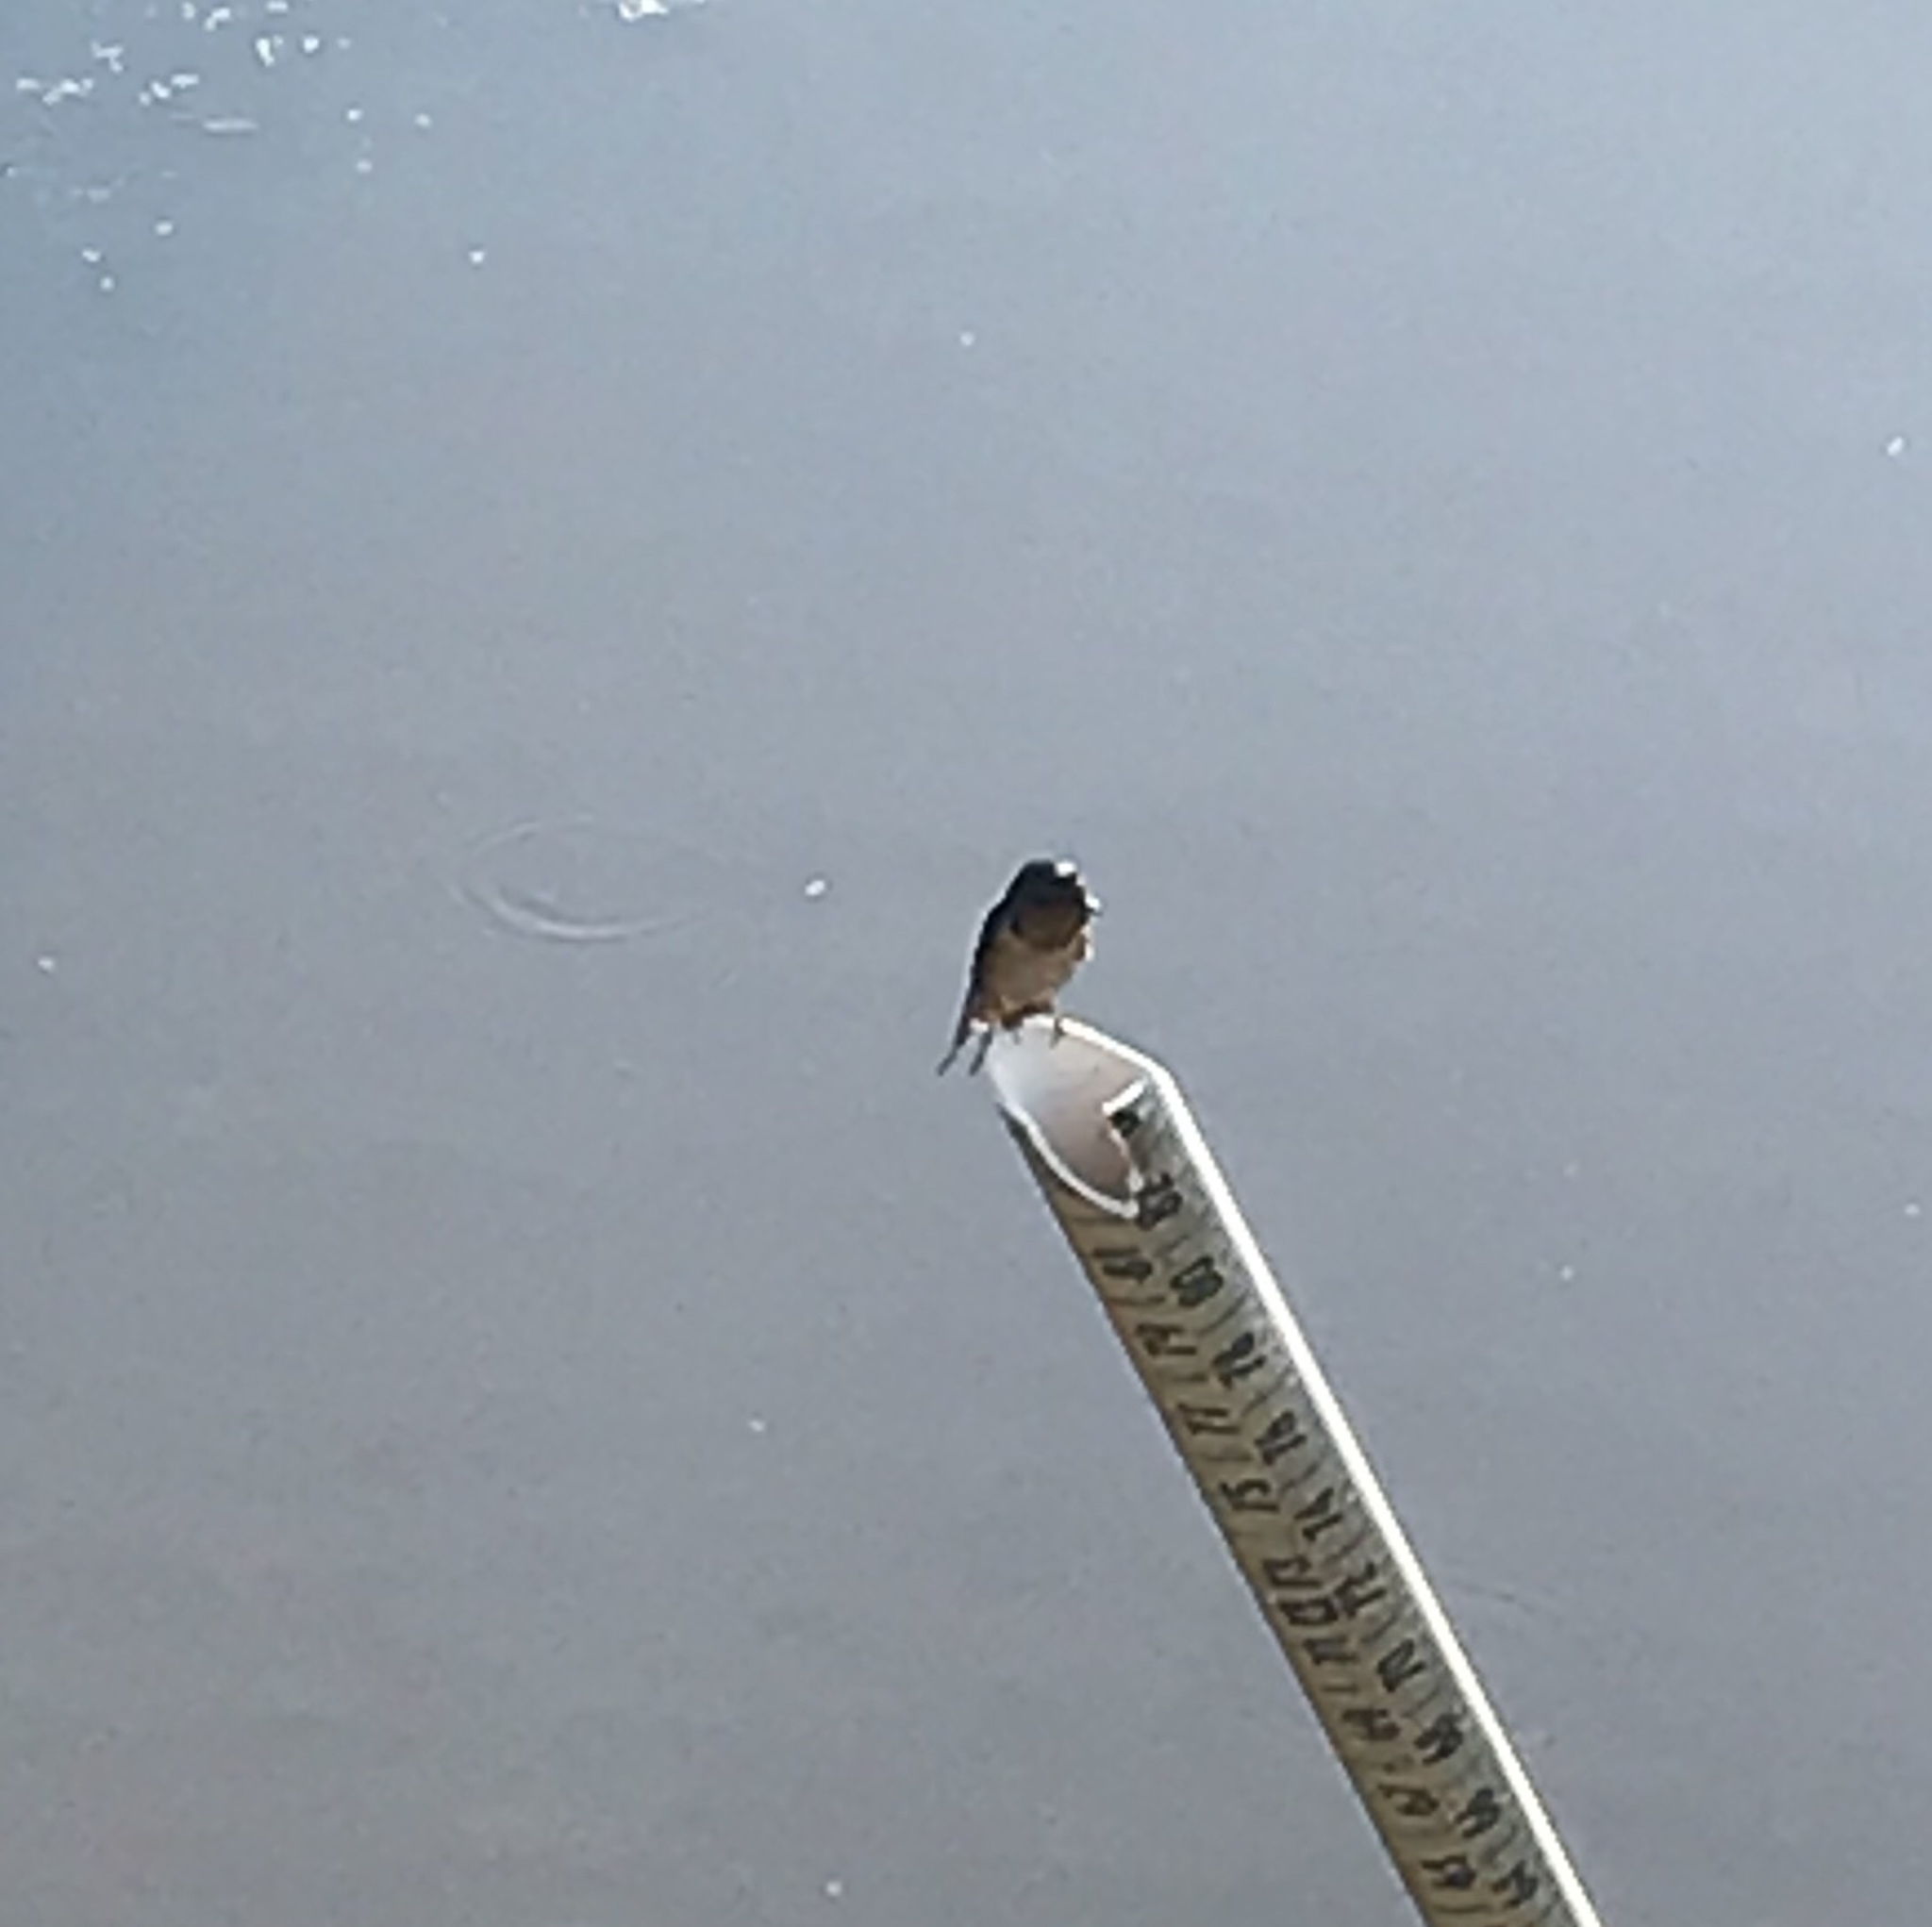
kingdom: Animalia
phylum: Chordata
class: Aves
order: Passeriformes
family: Hirundinidae
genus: Hirundo
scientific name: Hirundo rustica
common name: Barn swallow
